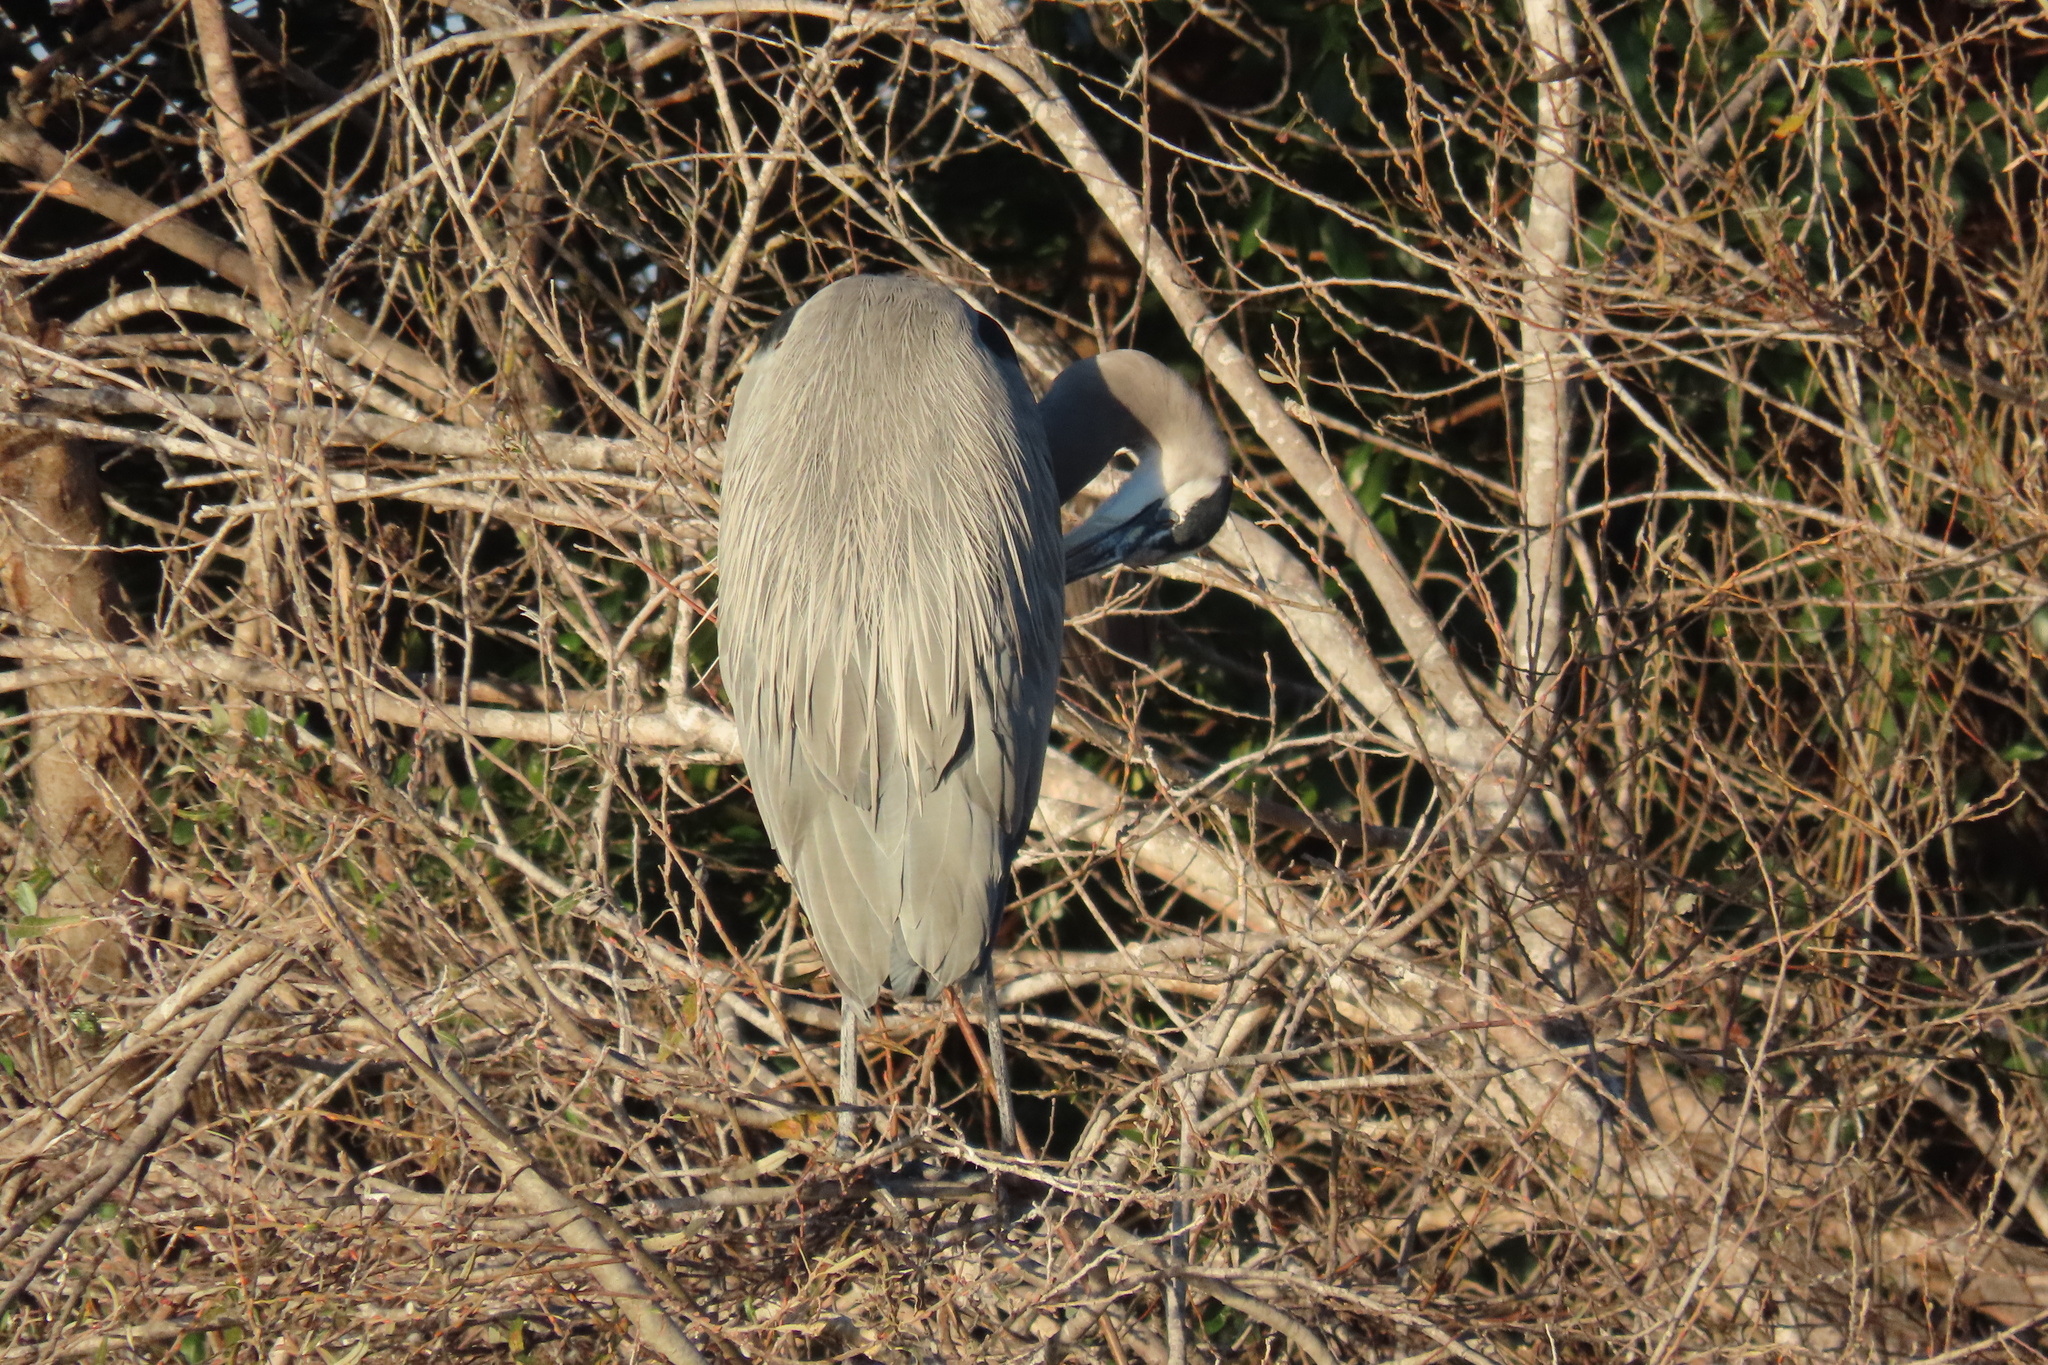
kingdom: Animalia
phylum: Chordata
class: Aves
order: Pelecaniformes
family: Ardeidae
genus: Ardea
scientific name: Ardea herodias
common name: Great blue heron
